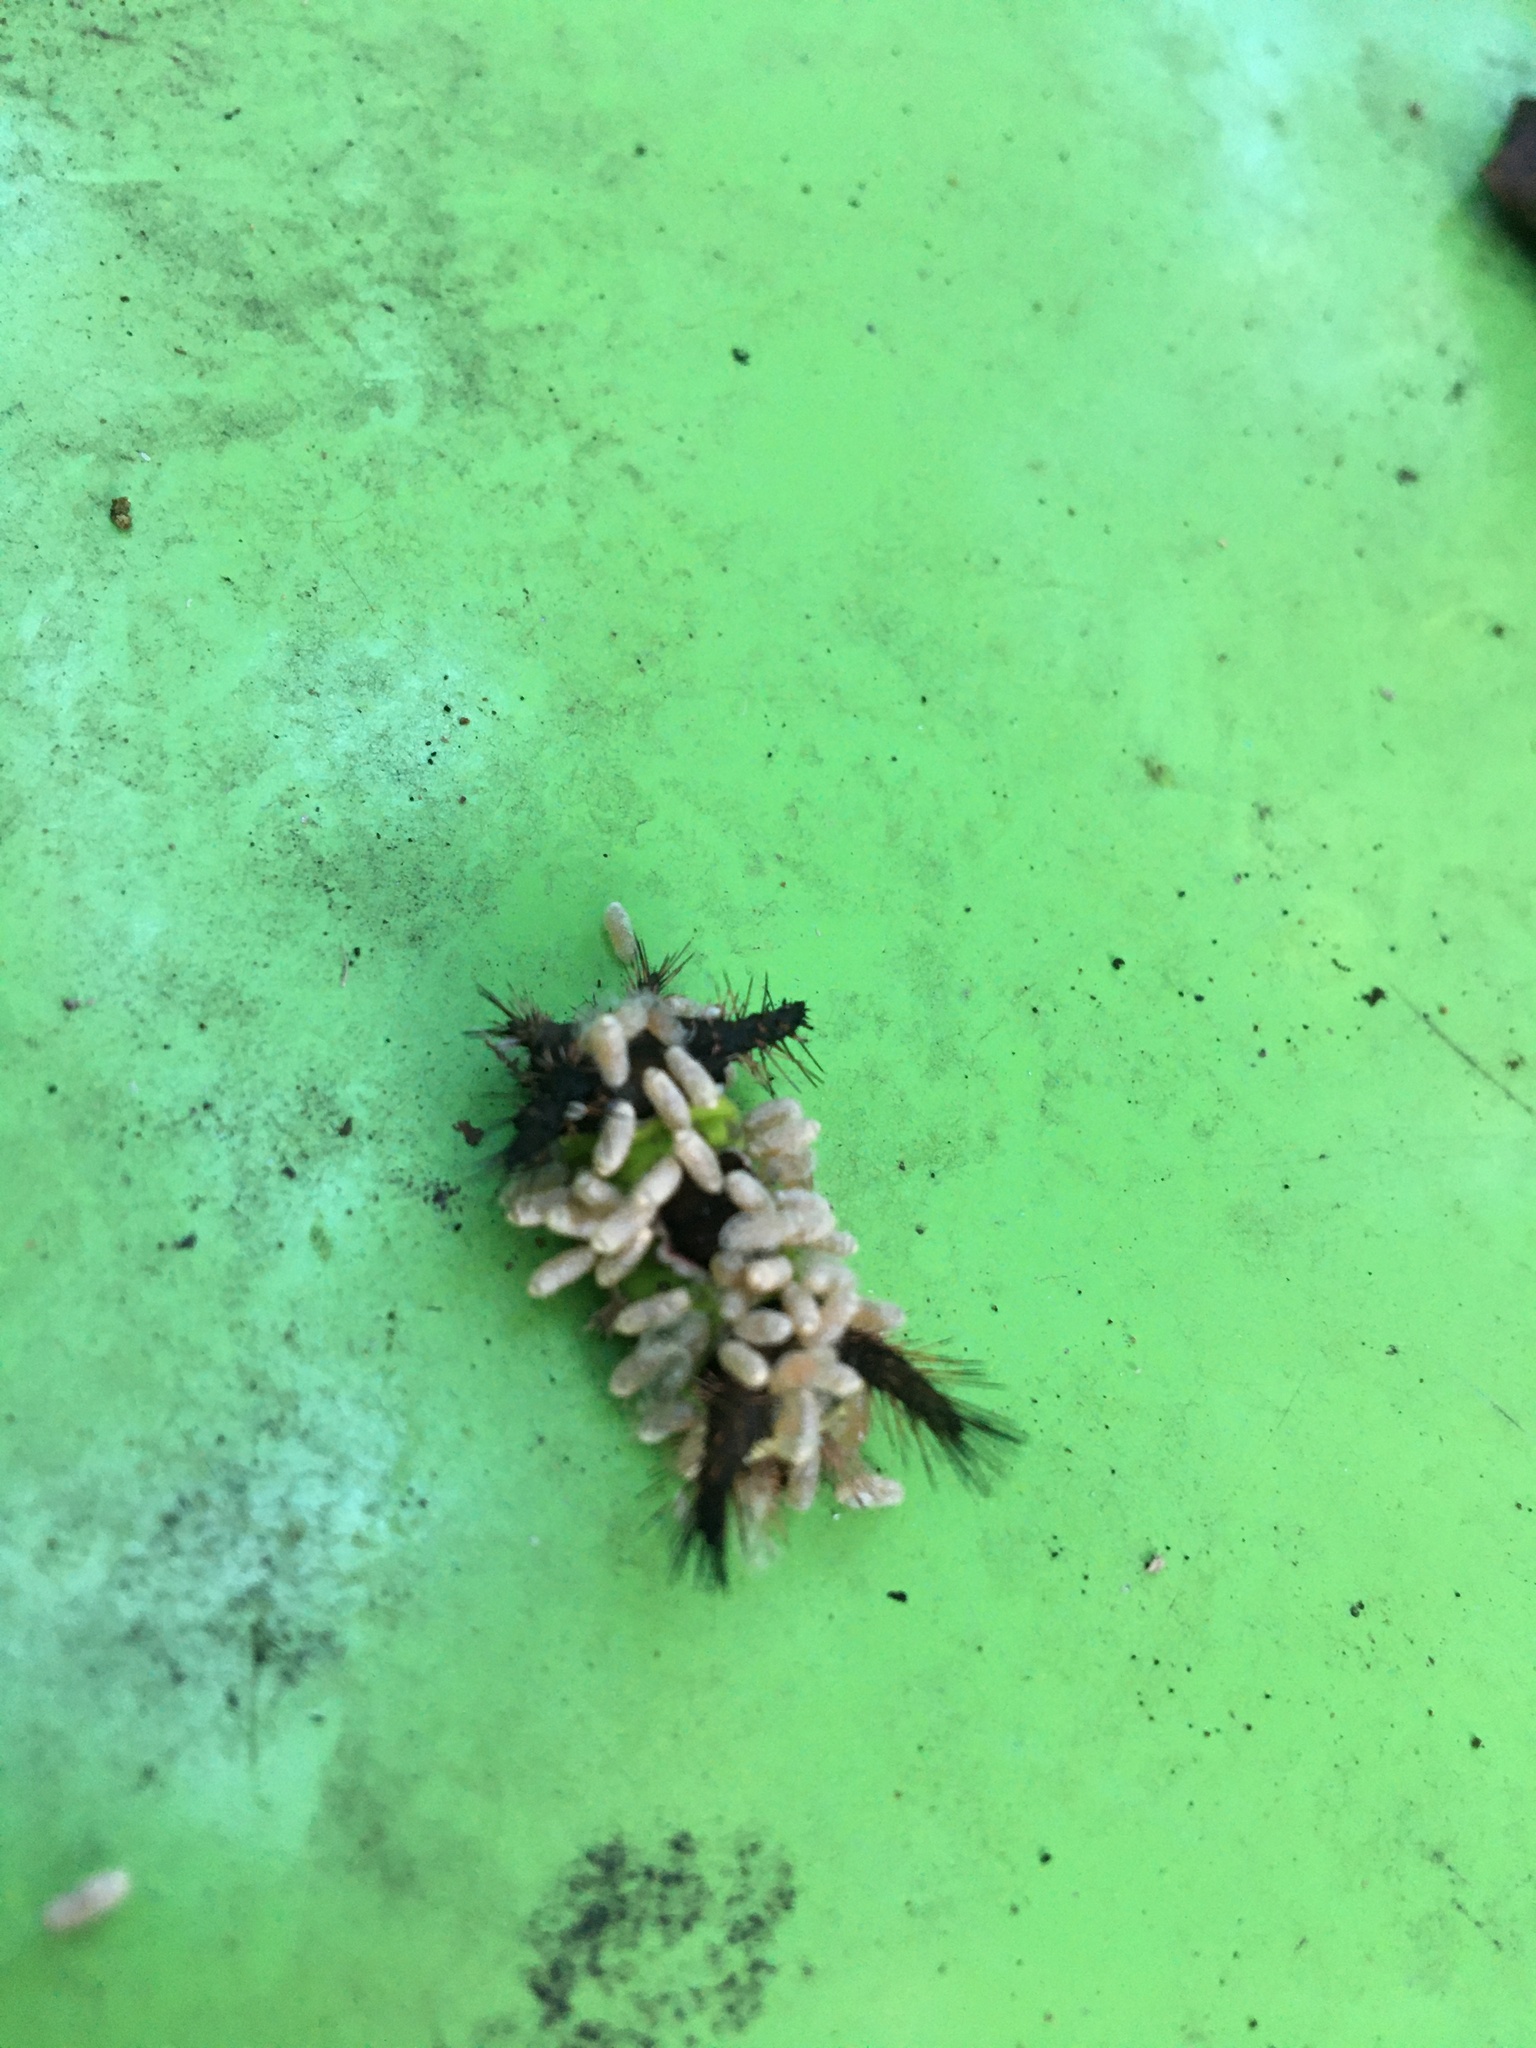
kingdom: Animalia
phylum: Arthropoda
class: Insecta
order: Lepidoptera
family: Limacodidae
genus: Acharia
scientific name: Acharia stimulea
